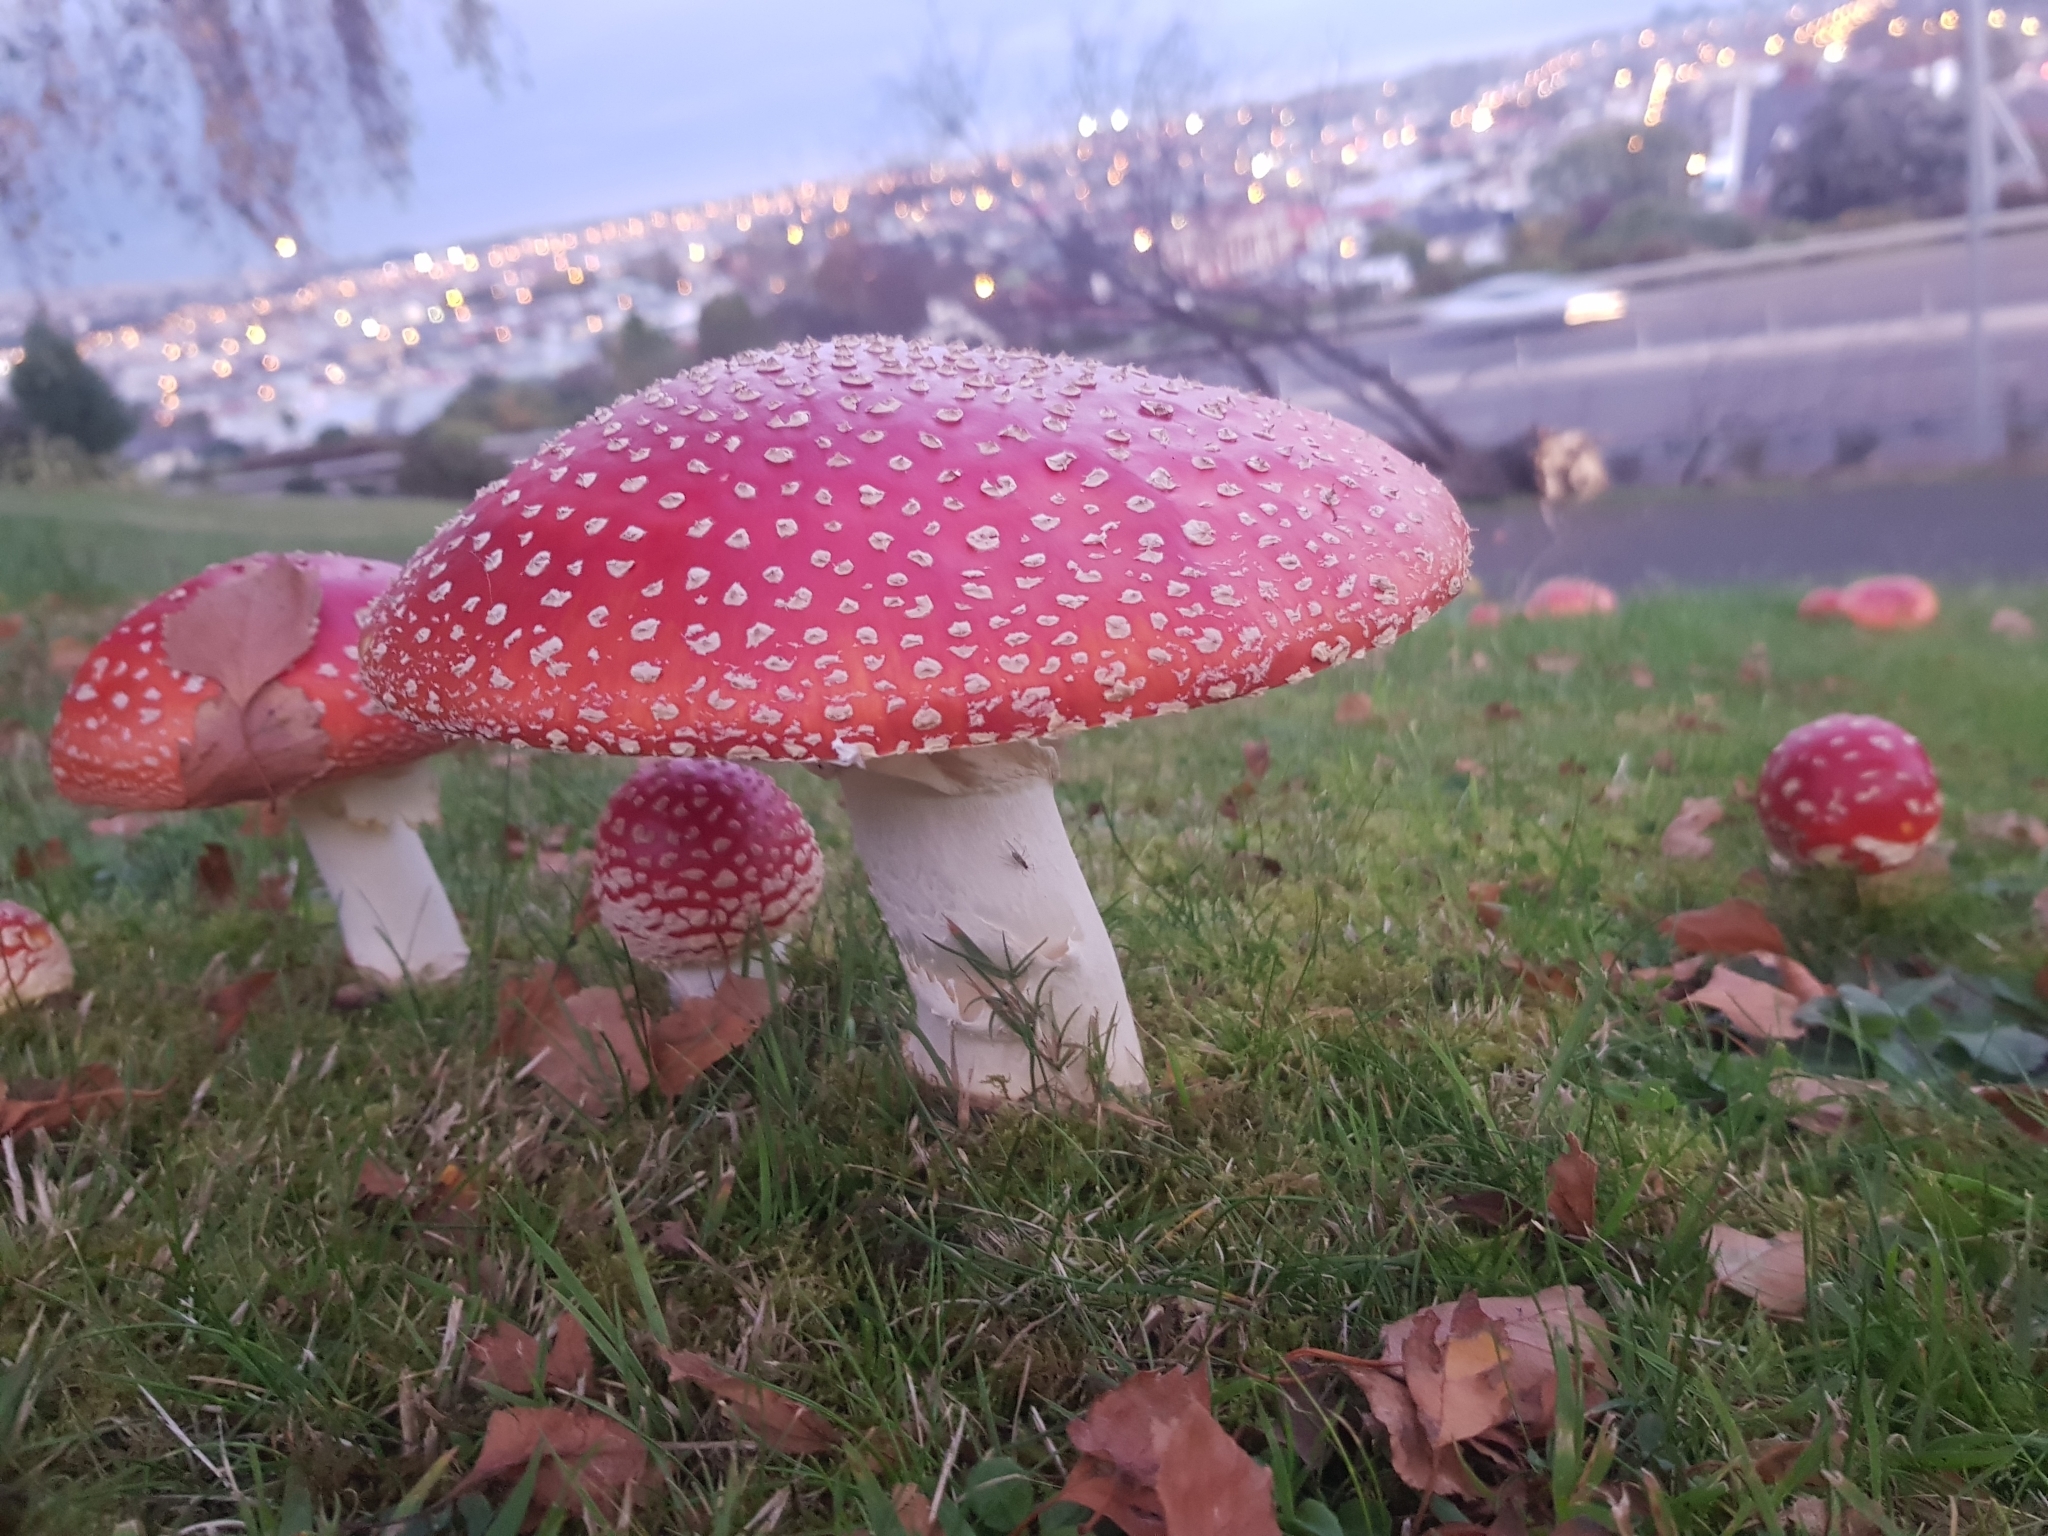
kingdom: Fungi
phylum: Basidiomycota
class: Agaricomycetes
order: Agaricales
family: Amanitaceae
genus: Amanita
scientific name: Amanita muscaria
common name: Fly agaric
